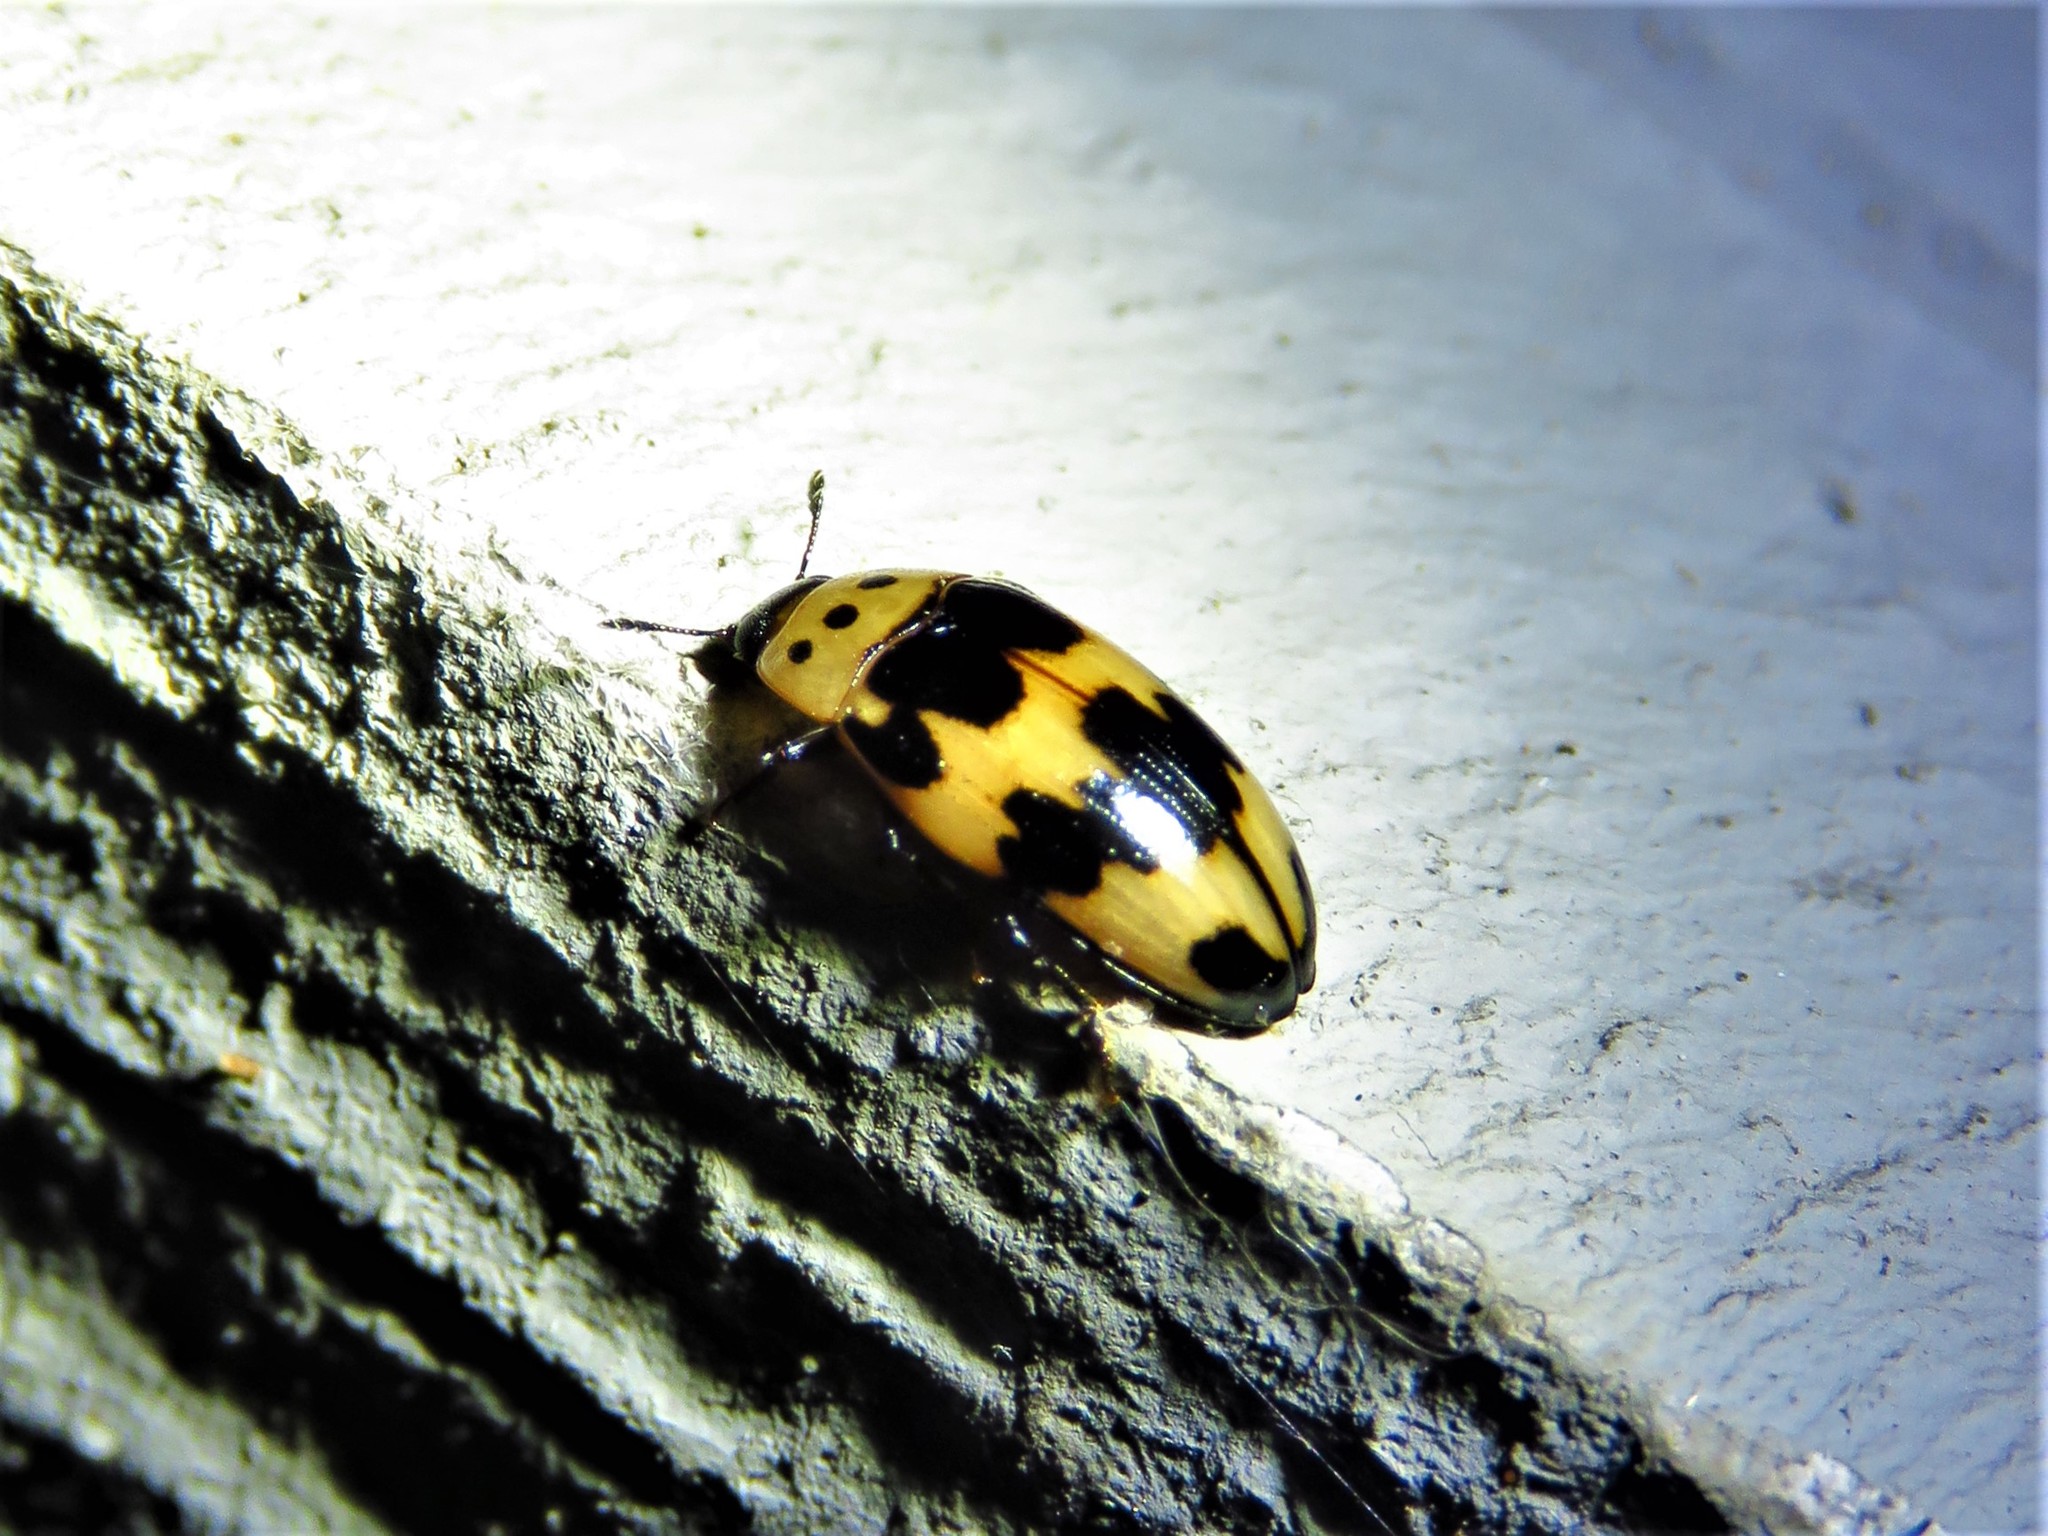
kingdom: Animalia
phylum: Arthropoda
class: Insecta
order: Coleoptera
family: Erotylidae
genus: Ischyrus
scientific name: Ischyrus quadripunctatus
